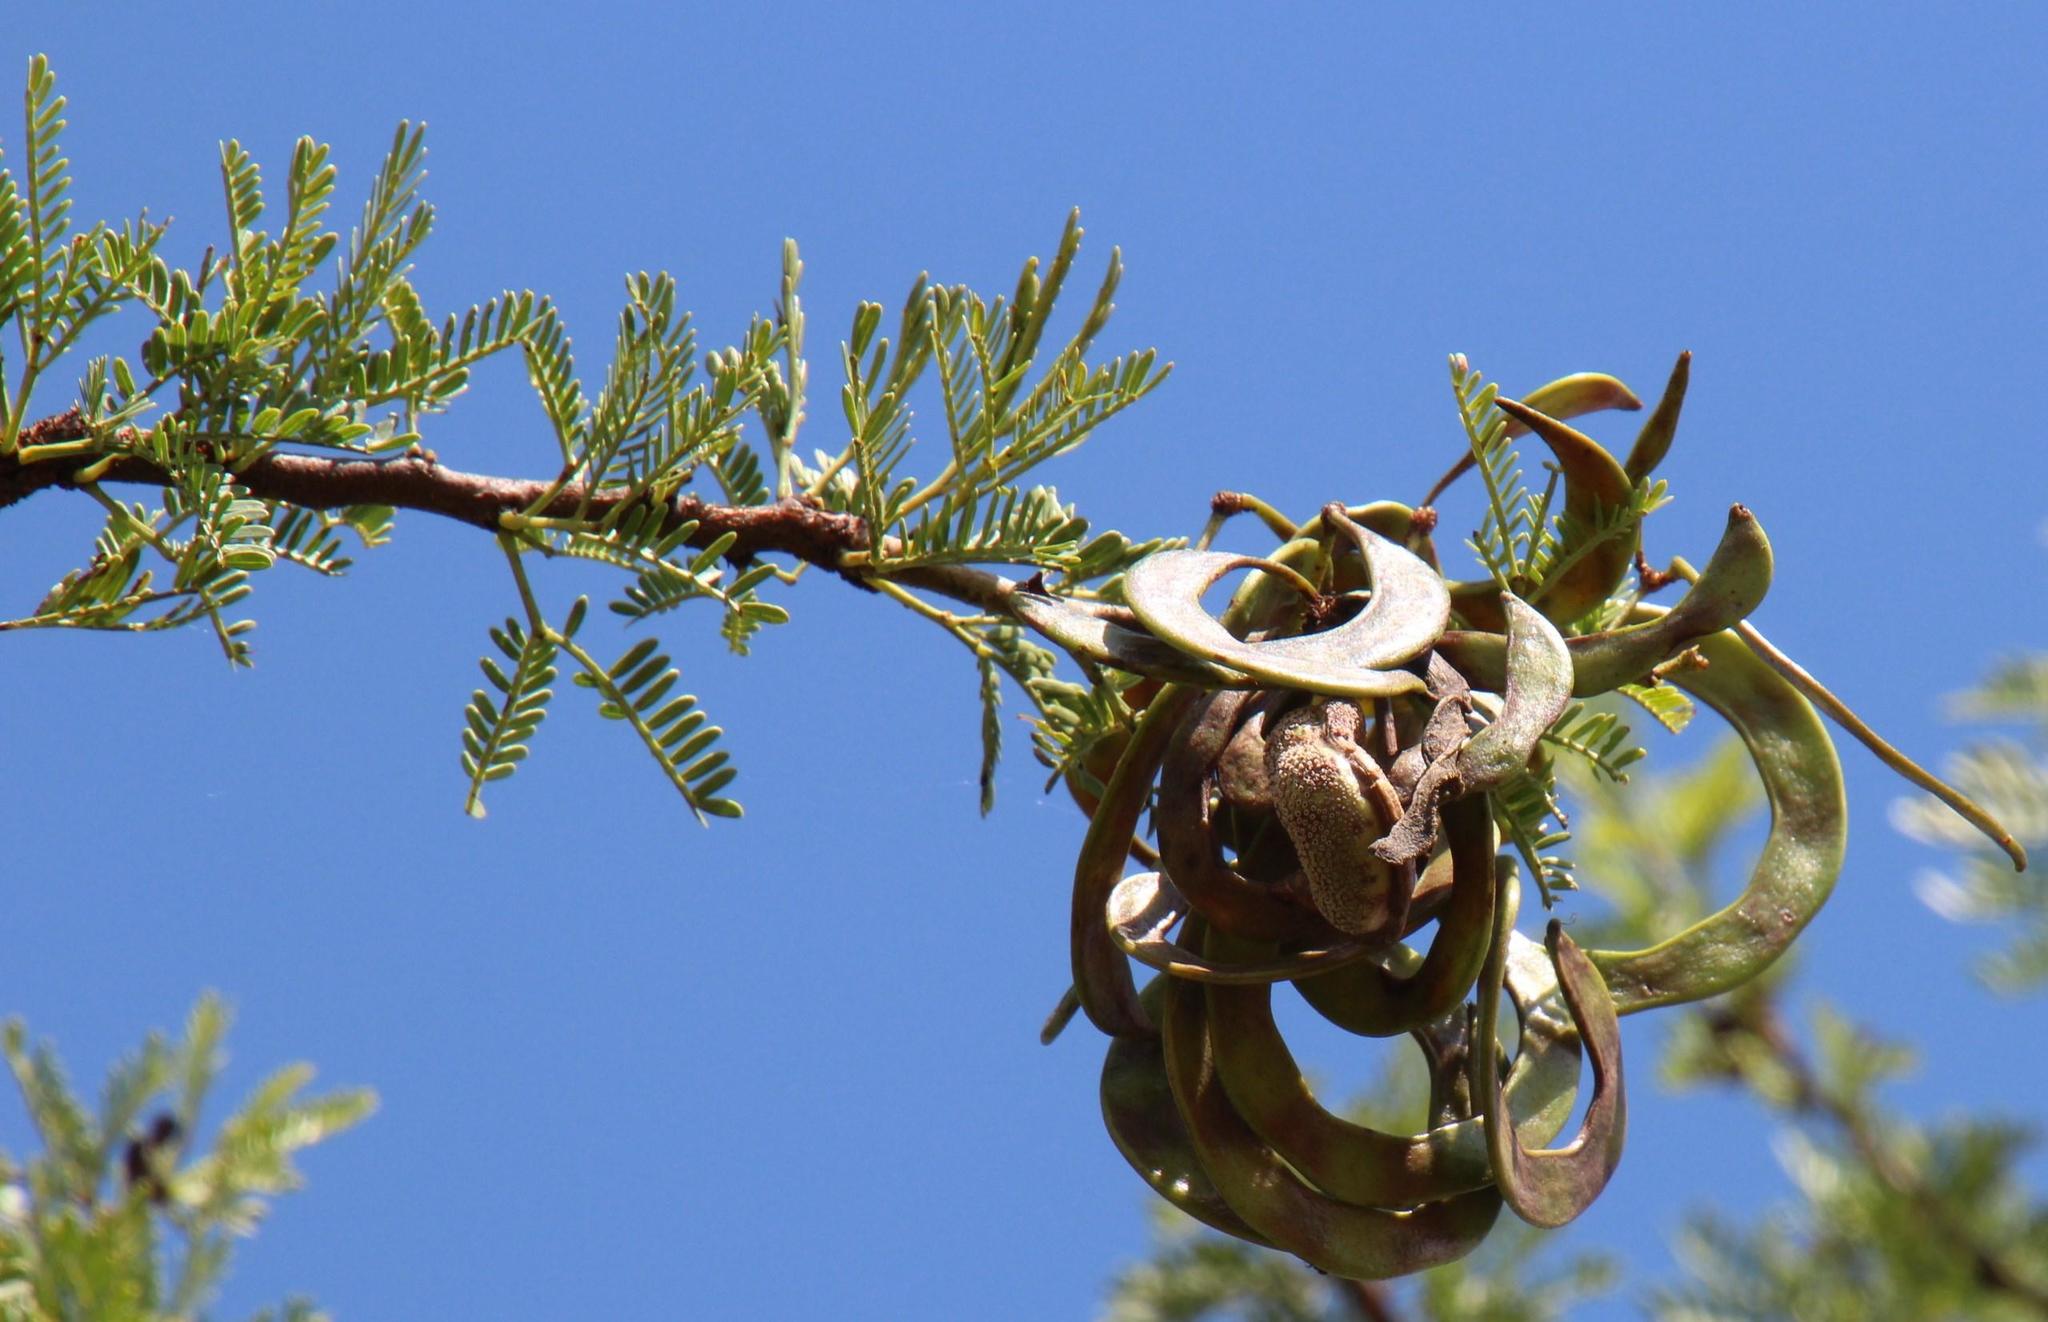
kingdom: Fungi
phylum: Basidiomycota
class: Pucciniomycetes
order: Pucciniales
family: Raveneliaceae
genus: Cephalotelium
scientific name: Cephalotelium macowanianum
